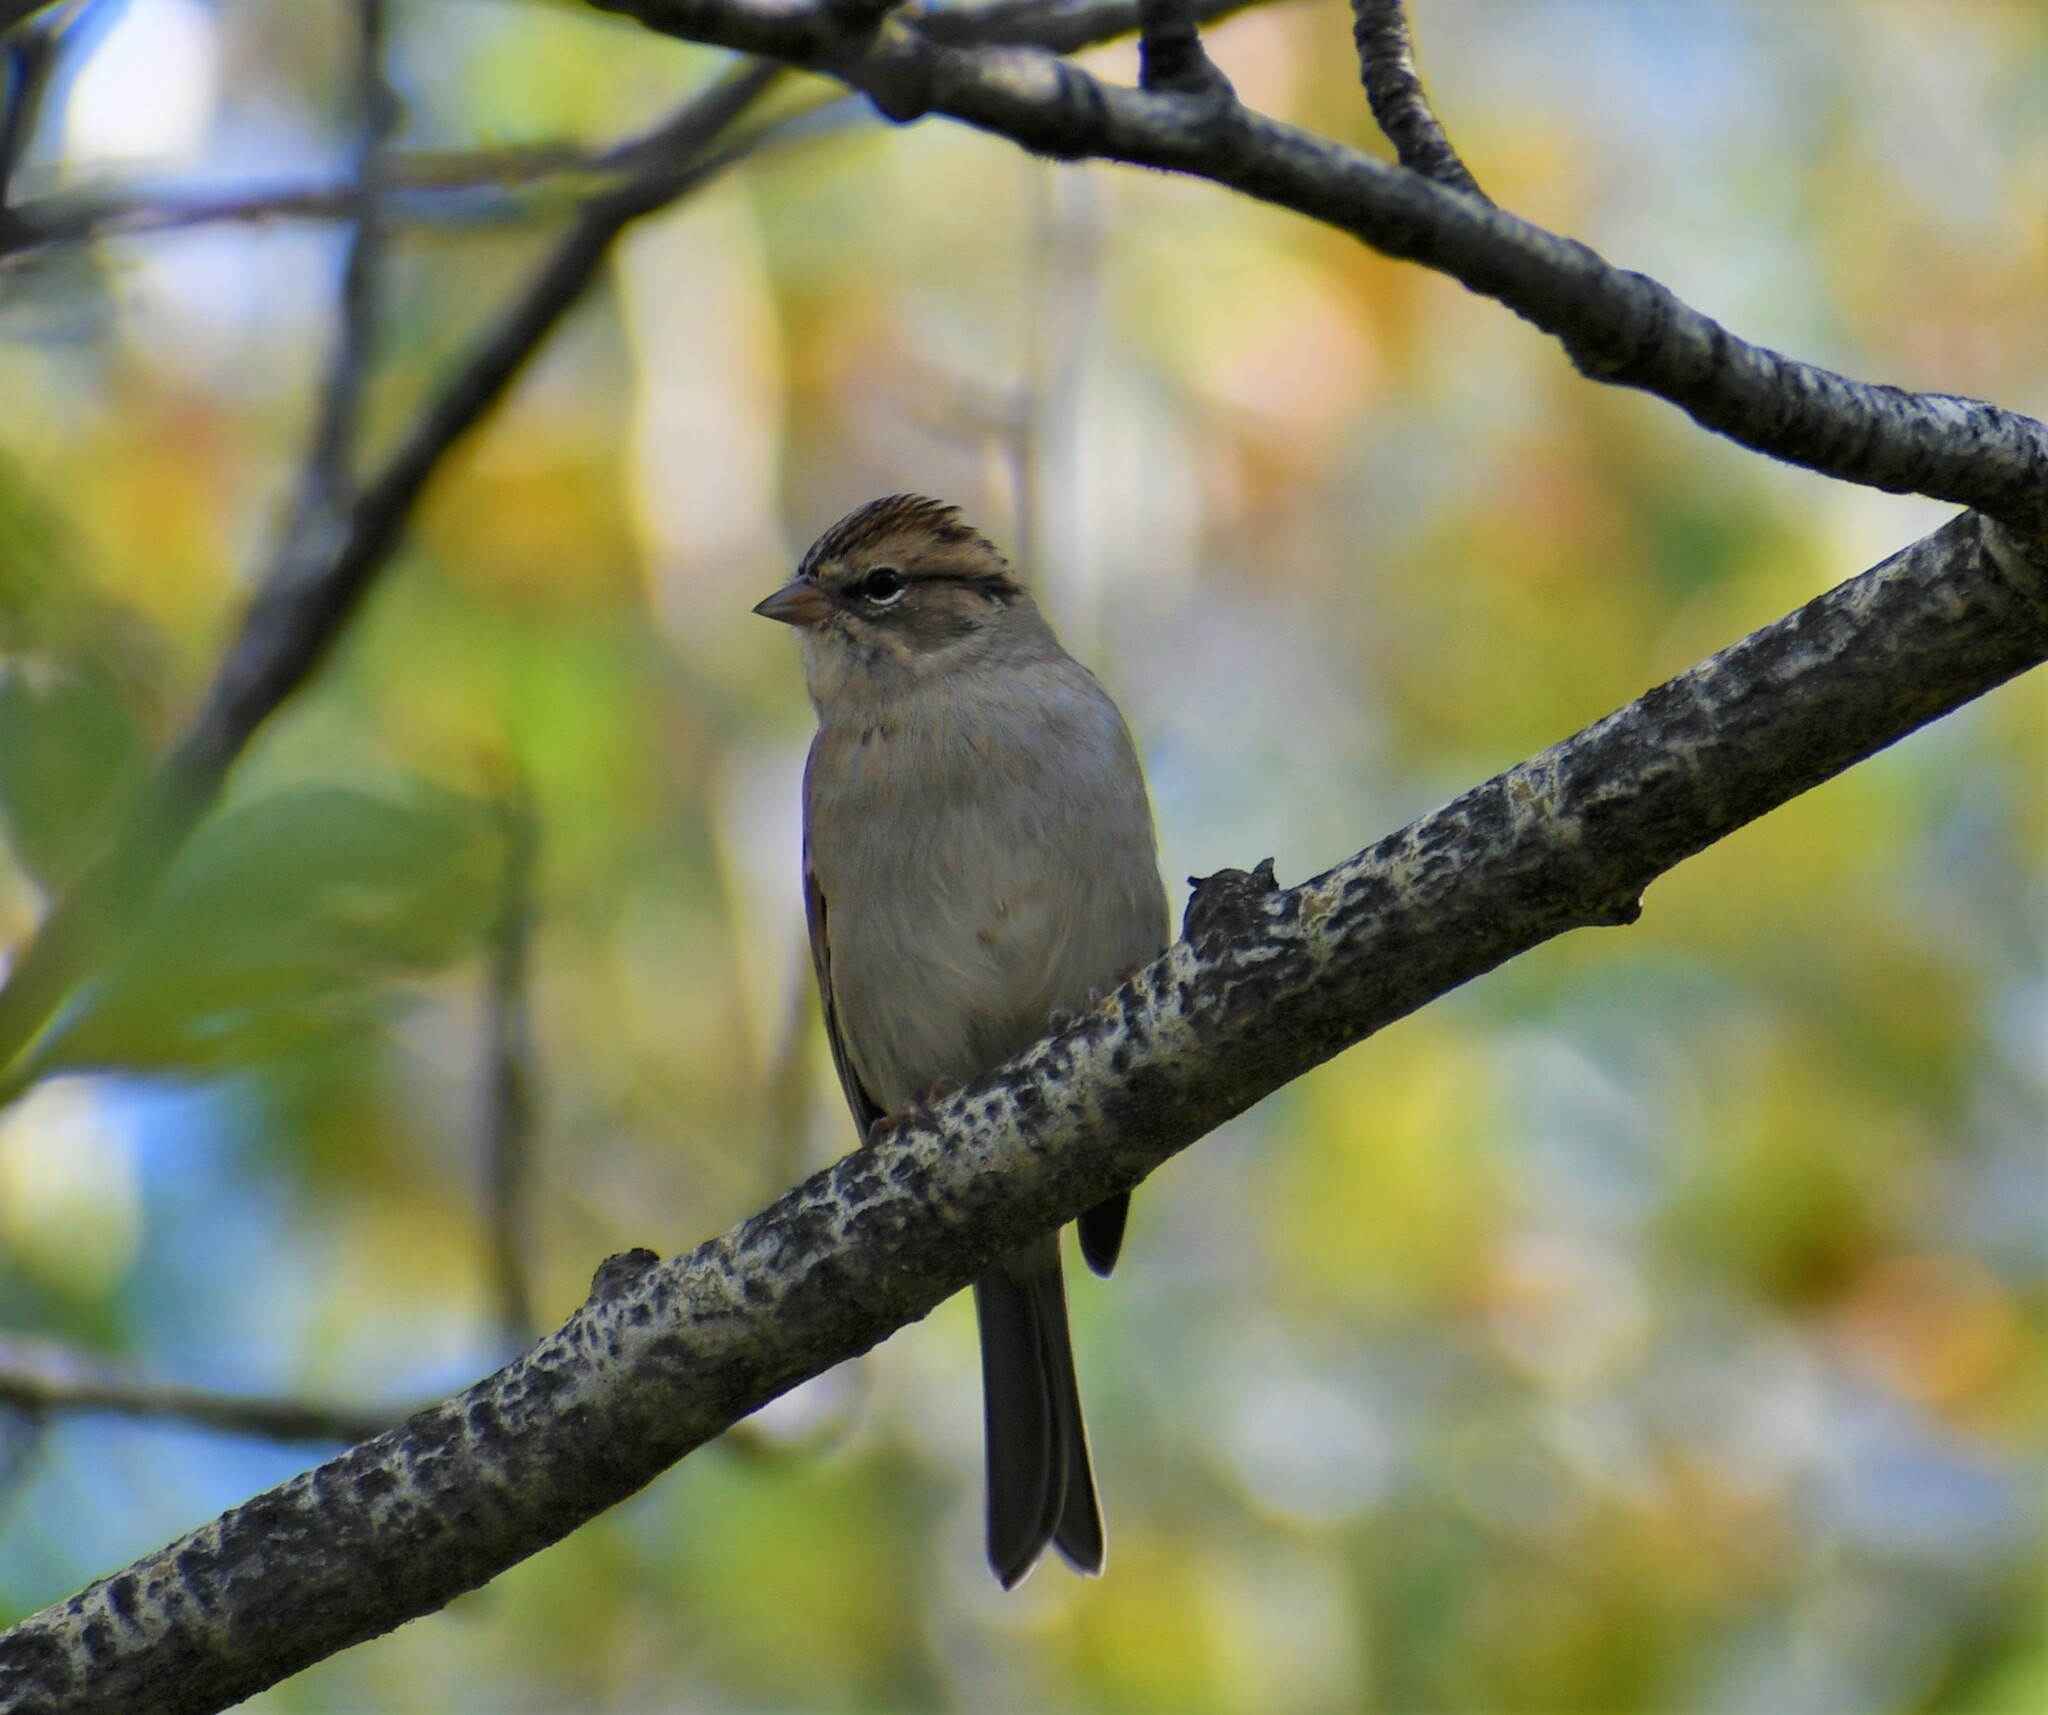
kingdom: Animalia
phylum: Chordata
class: Aves
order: Passeriformes
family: Passerellidae
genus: Spizella
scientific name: Spizella passerina
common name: Chipping sparrow
